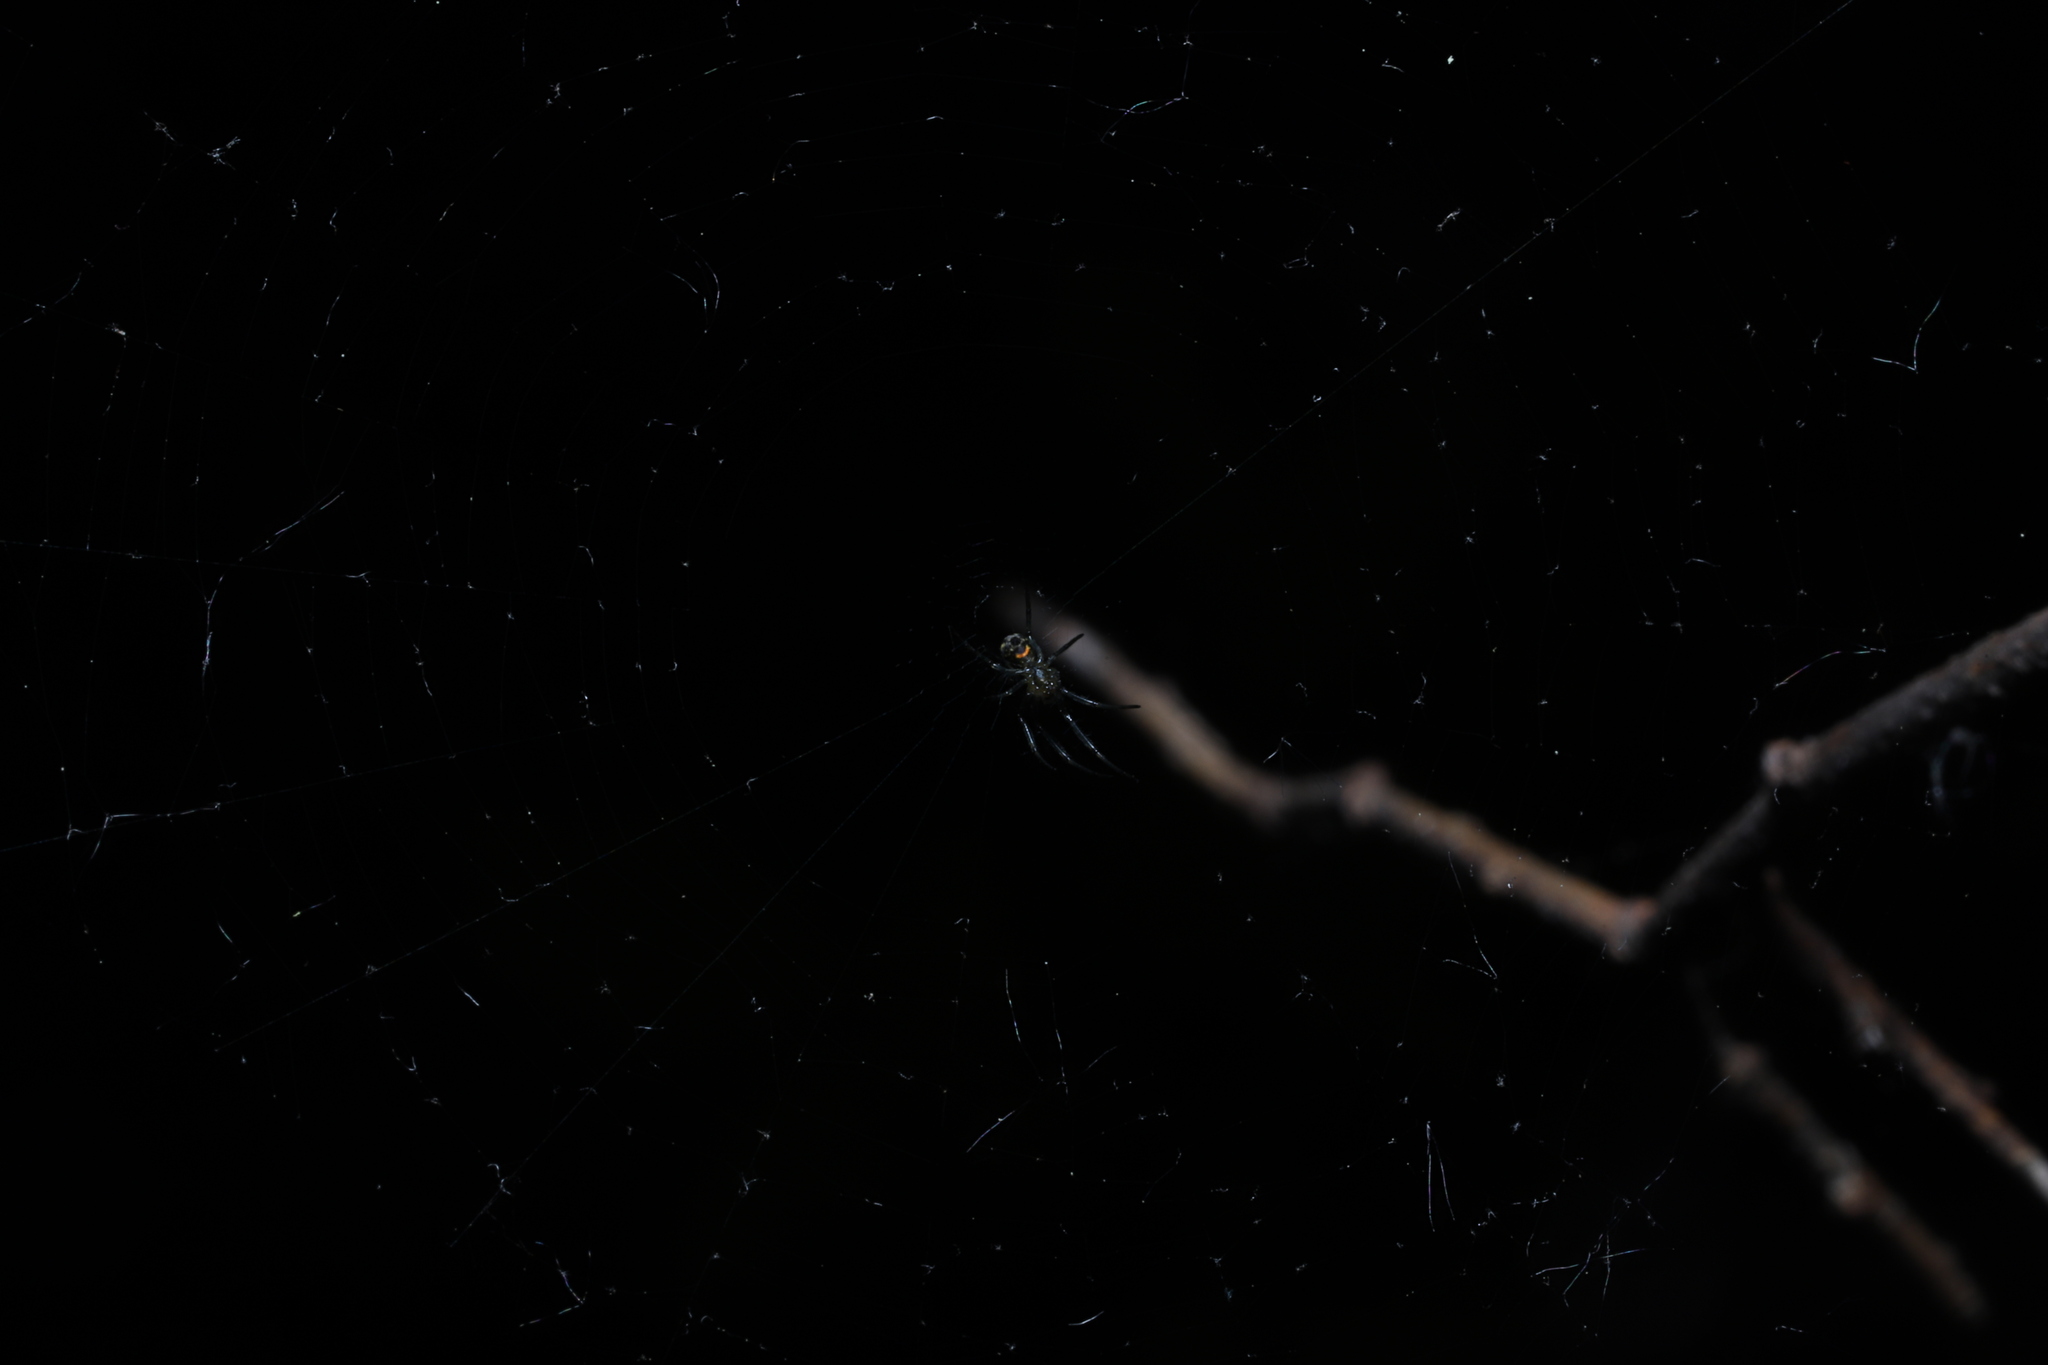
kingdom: Animalia
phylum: Arthropoda
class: Arachnida
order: Araneae
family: Tetragnathidae
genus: Leucauge
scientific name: Leucauge venusta
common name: Longjawed orb weavers
